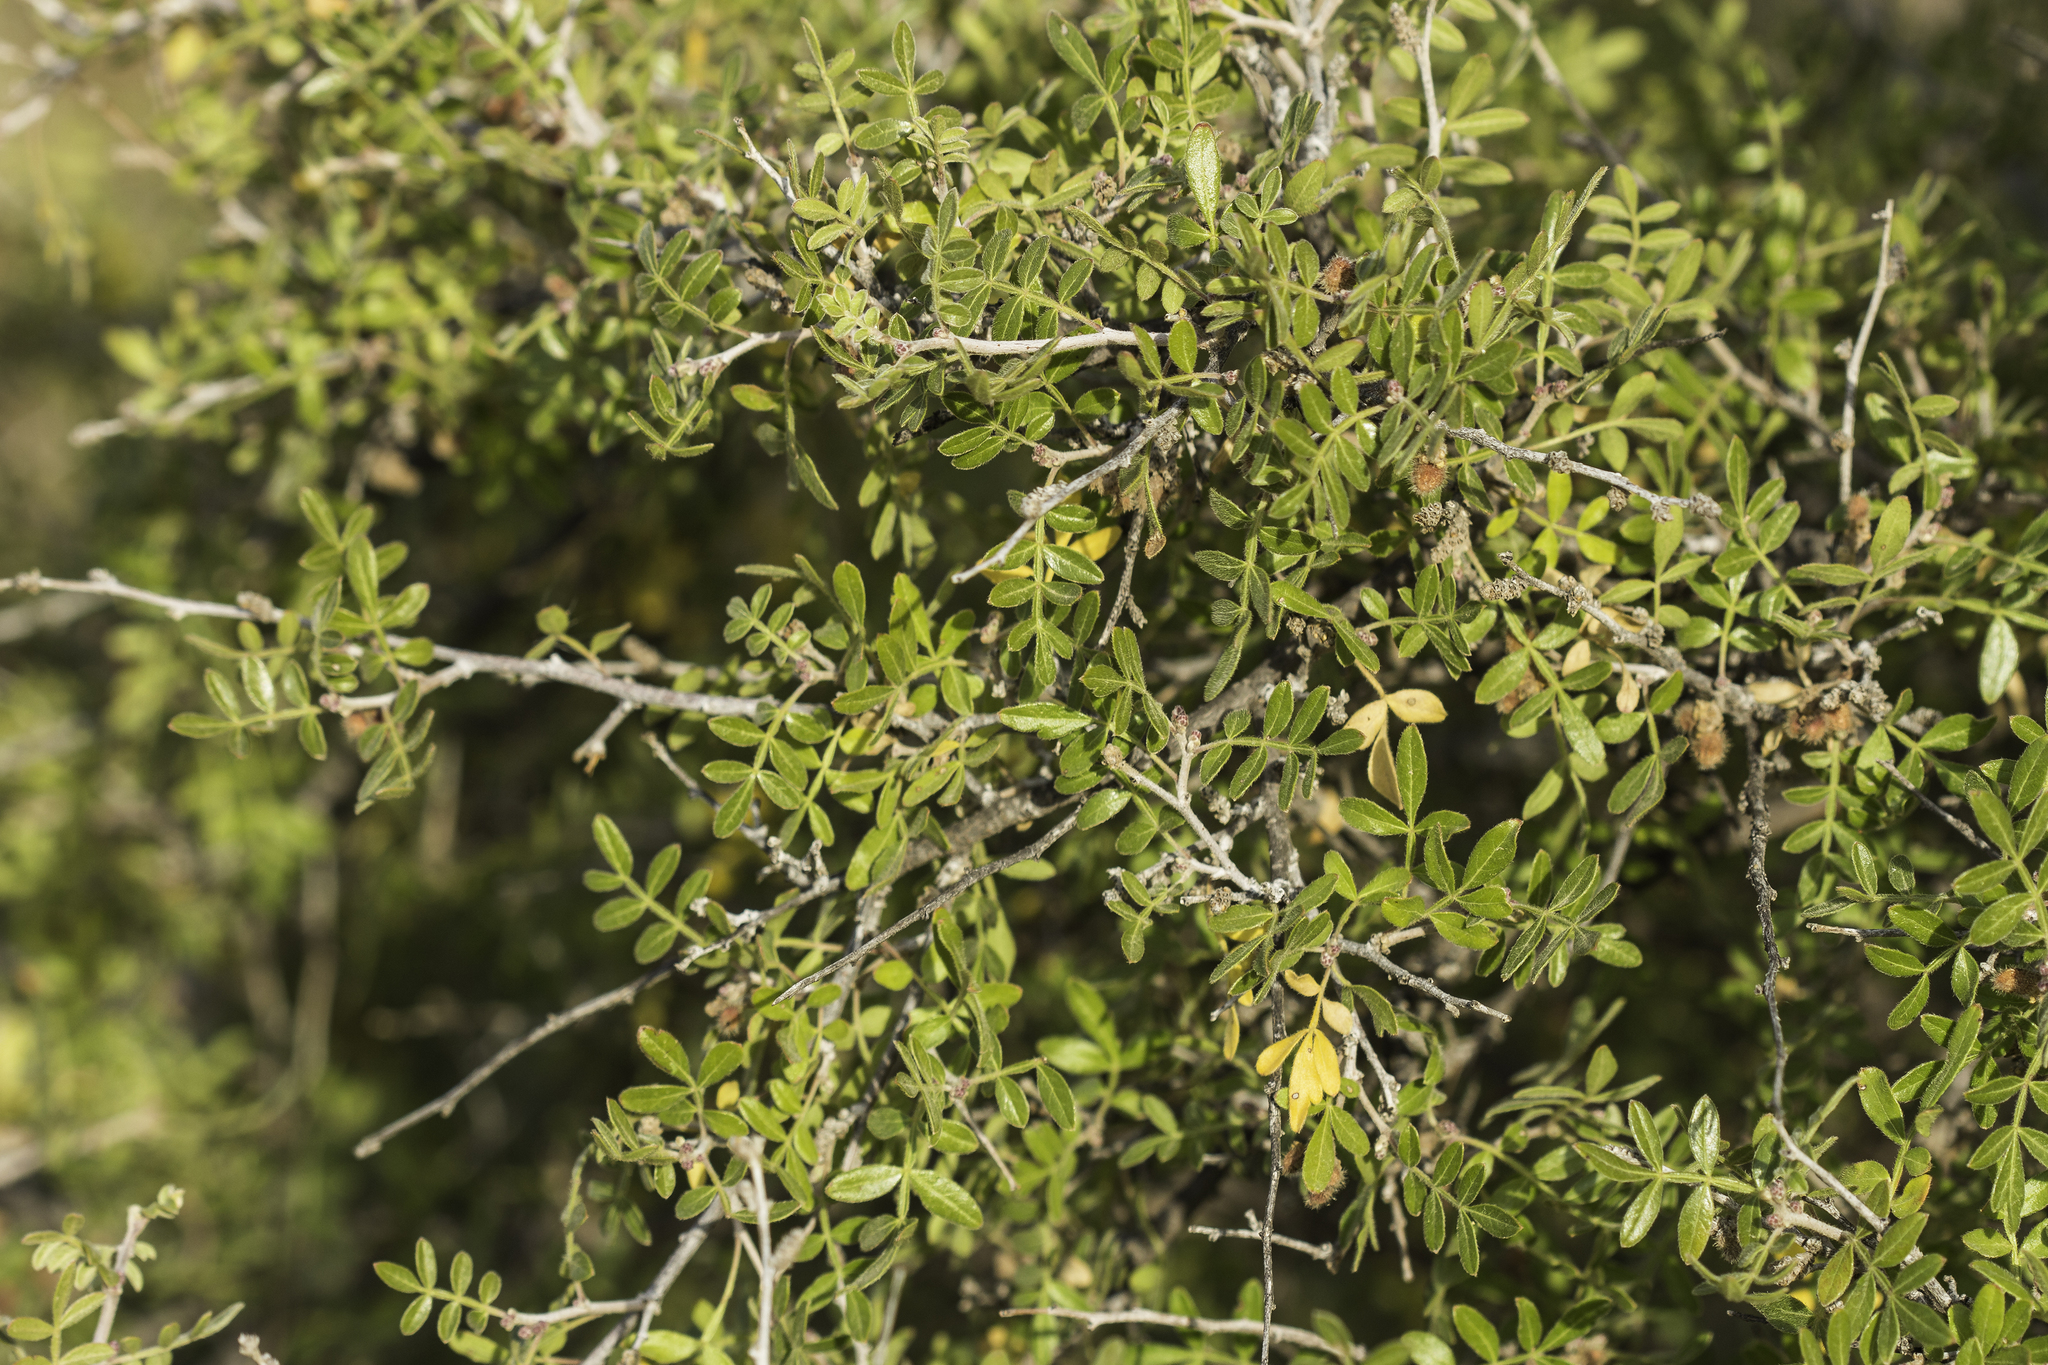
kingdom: Plantae
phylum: Tracheophyta
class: Magnoliopsida
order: Sapindales
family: Anacardiaceae
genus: Rhus
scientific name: Rhus microphylla
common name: Desert sumac
